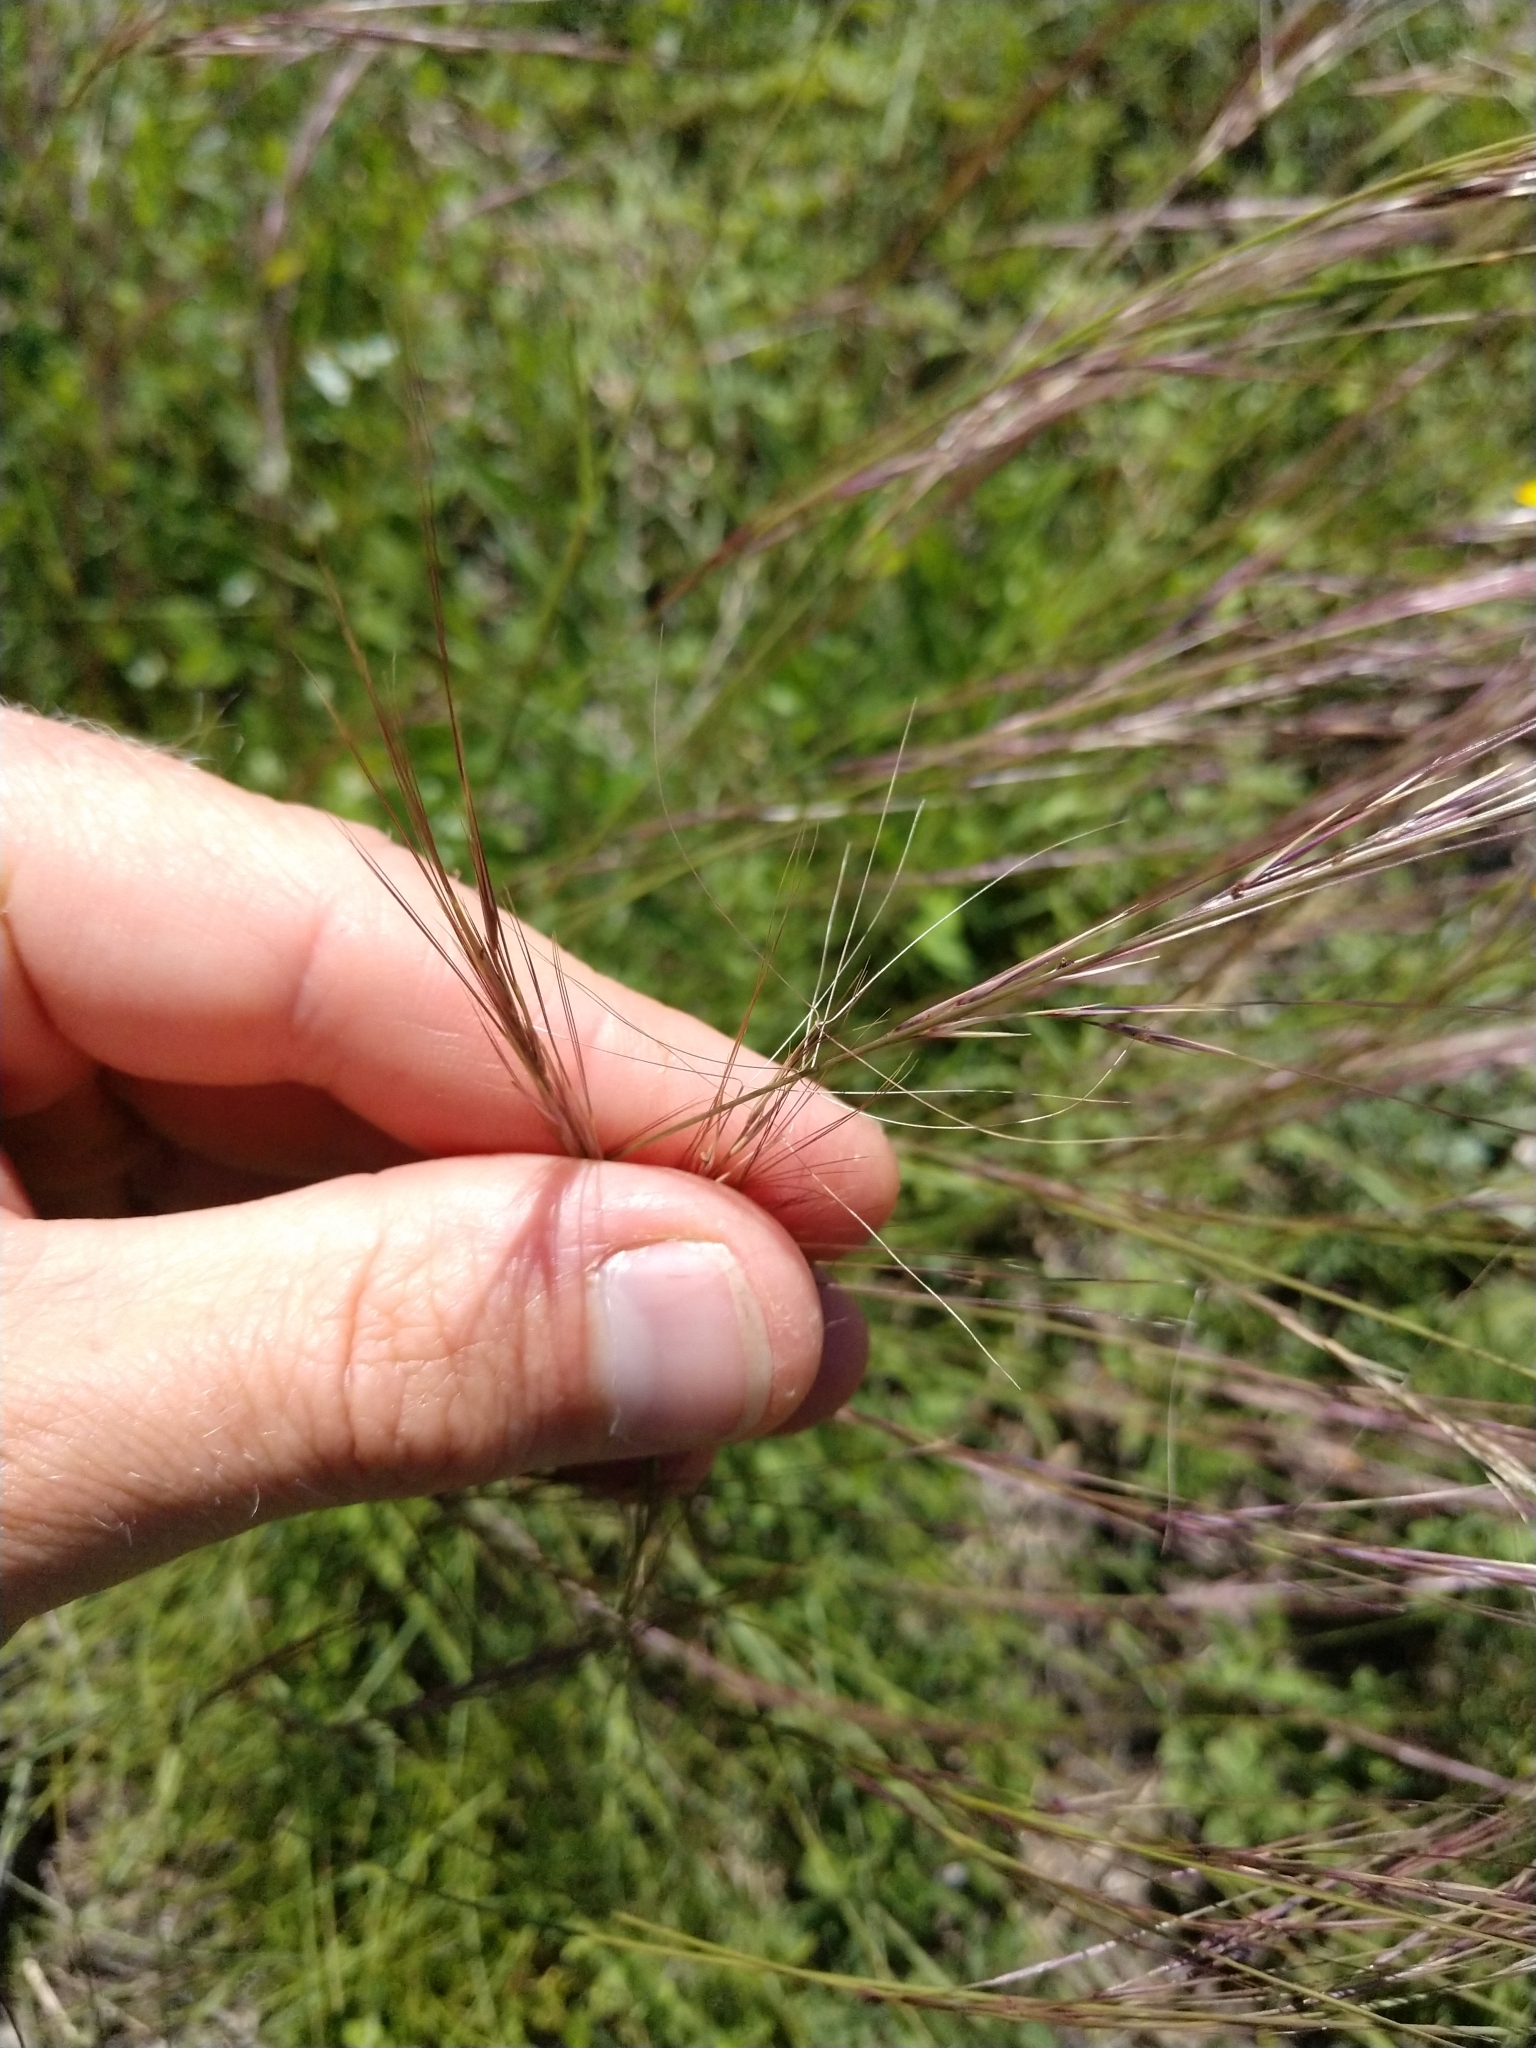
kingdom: Plantae
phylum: Tracheophyta
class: Liliopsida
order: Poales
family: Poaceae
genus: Aristida
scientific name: Aristida purpurea
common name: Purple threeawn
